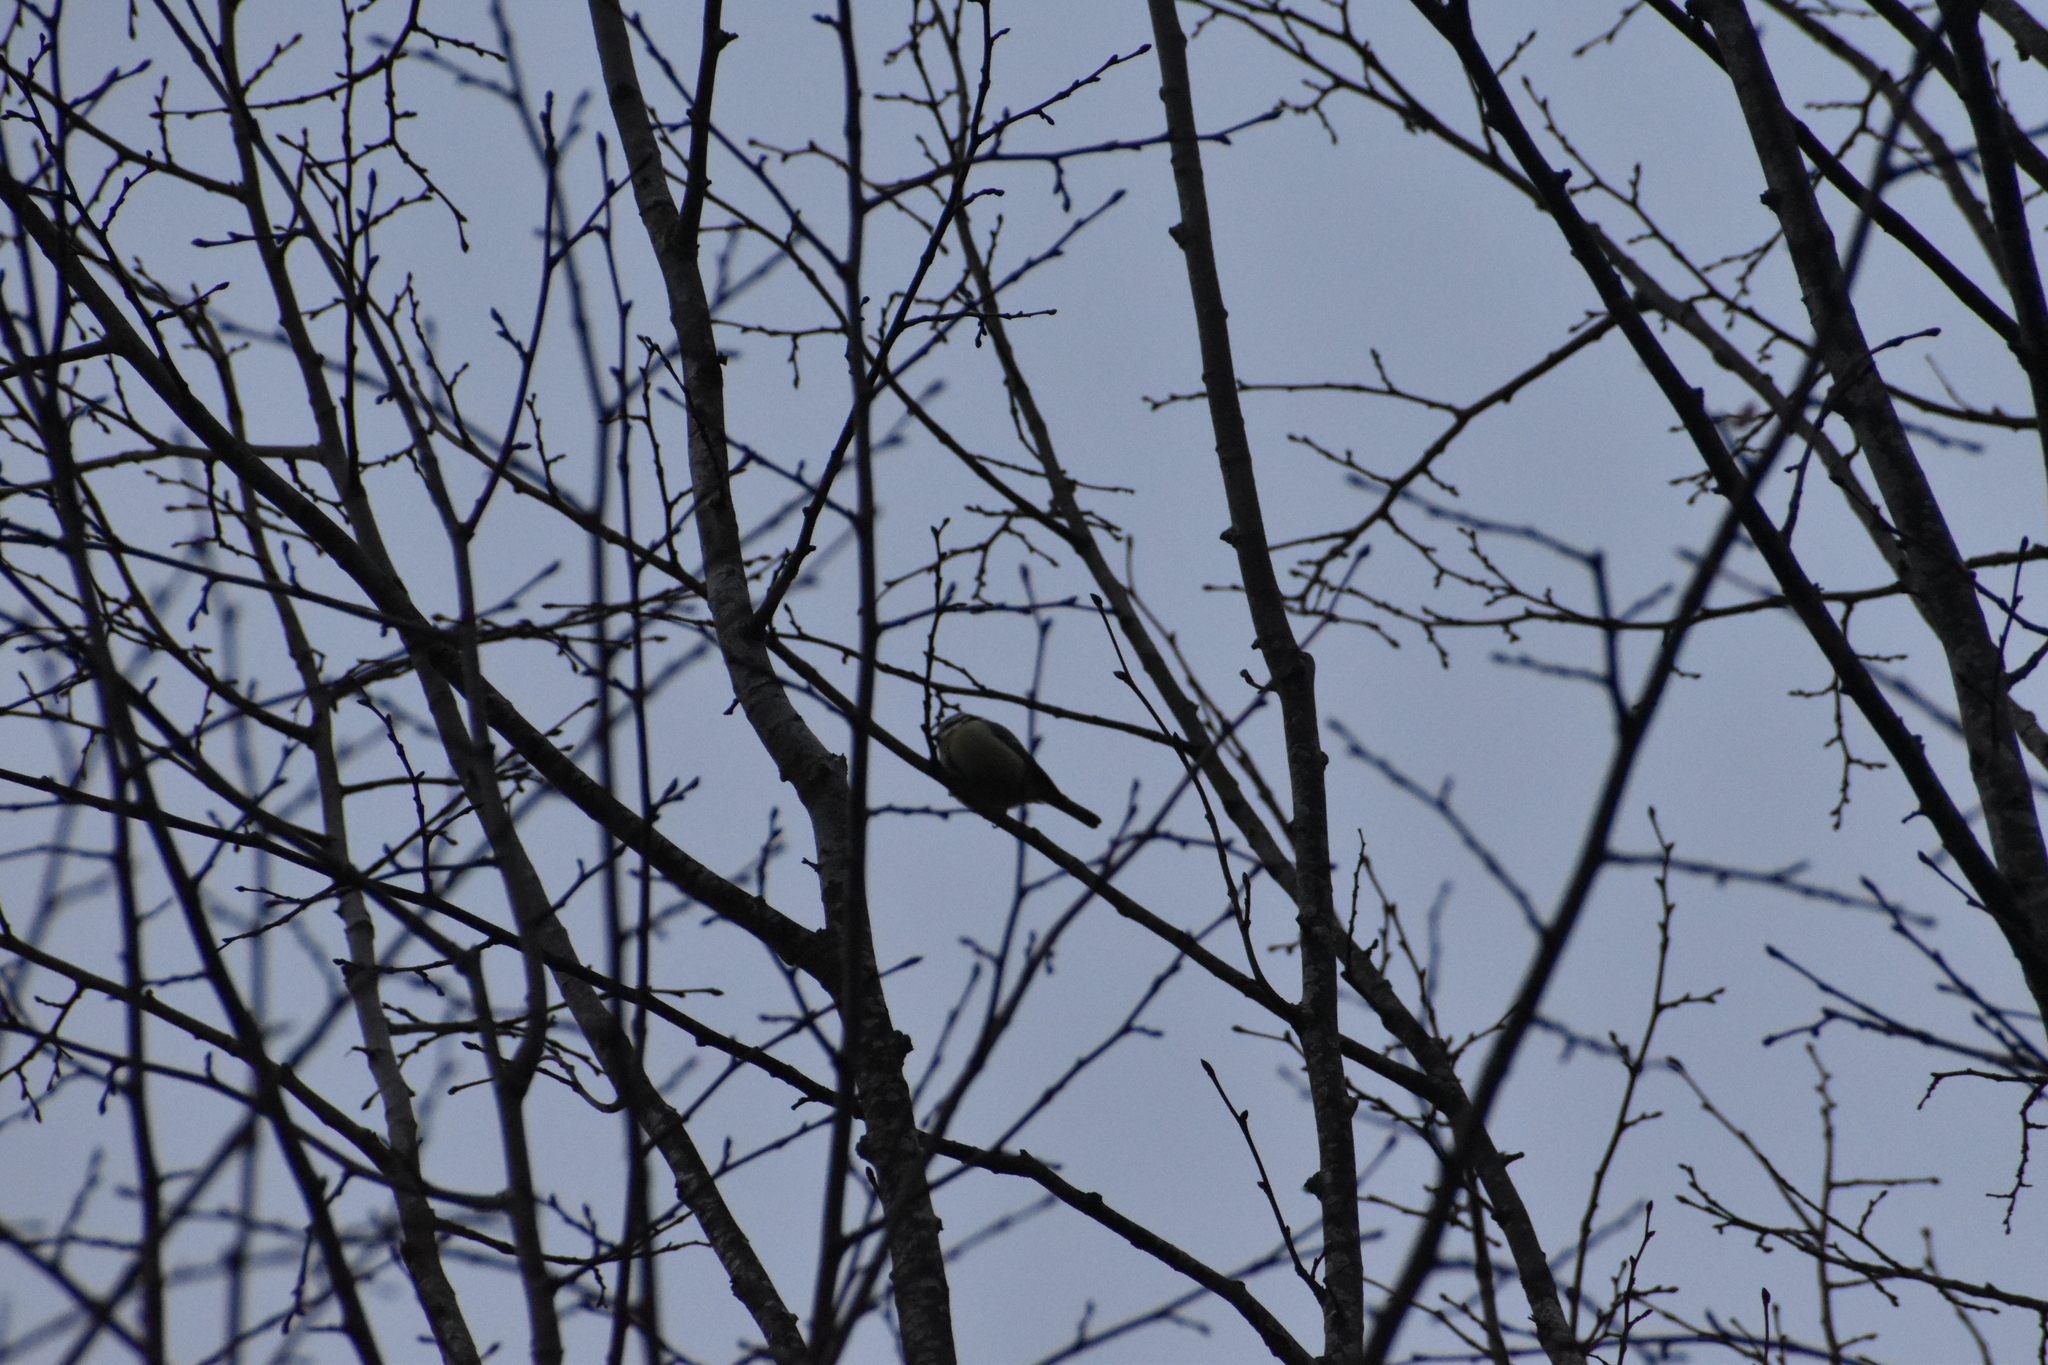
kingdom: Animalia
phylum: Chordata
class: Aves
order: Passeriformes
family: Paridae
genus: Cyanistes
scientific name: Cyanistes caeruleus
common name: Eurasian blue tit
